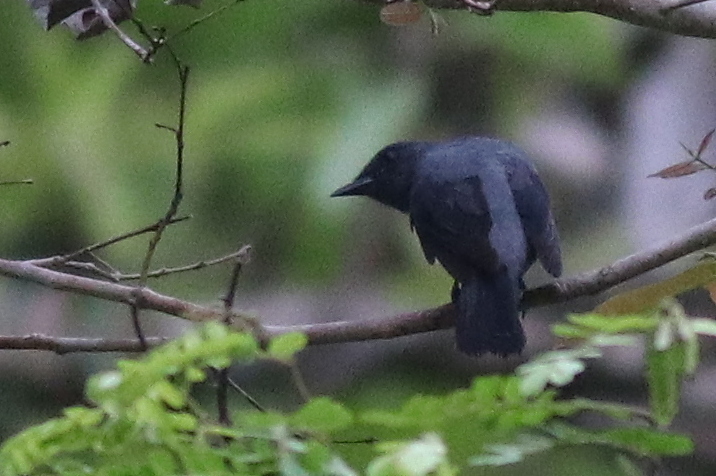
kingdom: Animalia
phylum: Chordata
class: Aves
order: Passeriformes
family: Campephagidae
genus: Coracina
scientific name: Coracina fimbriata
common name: Lesser cuckooshrike
